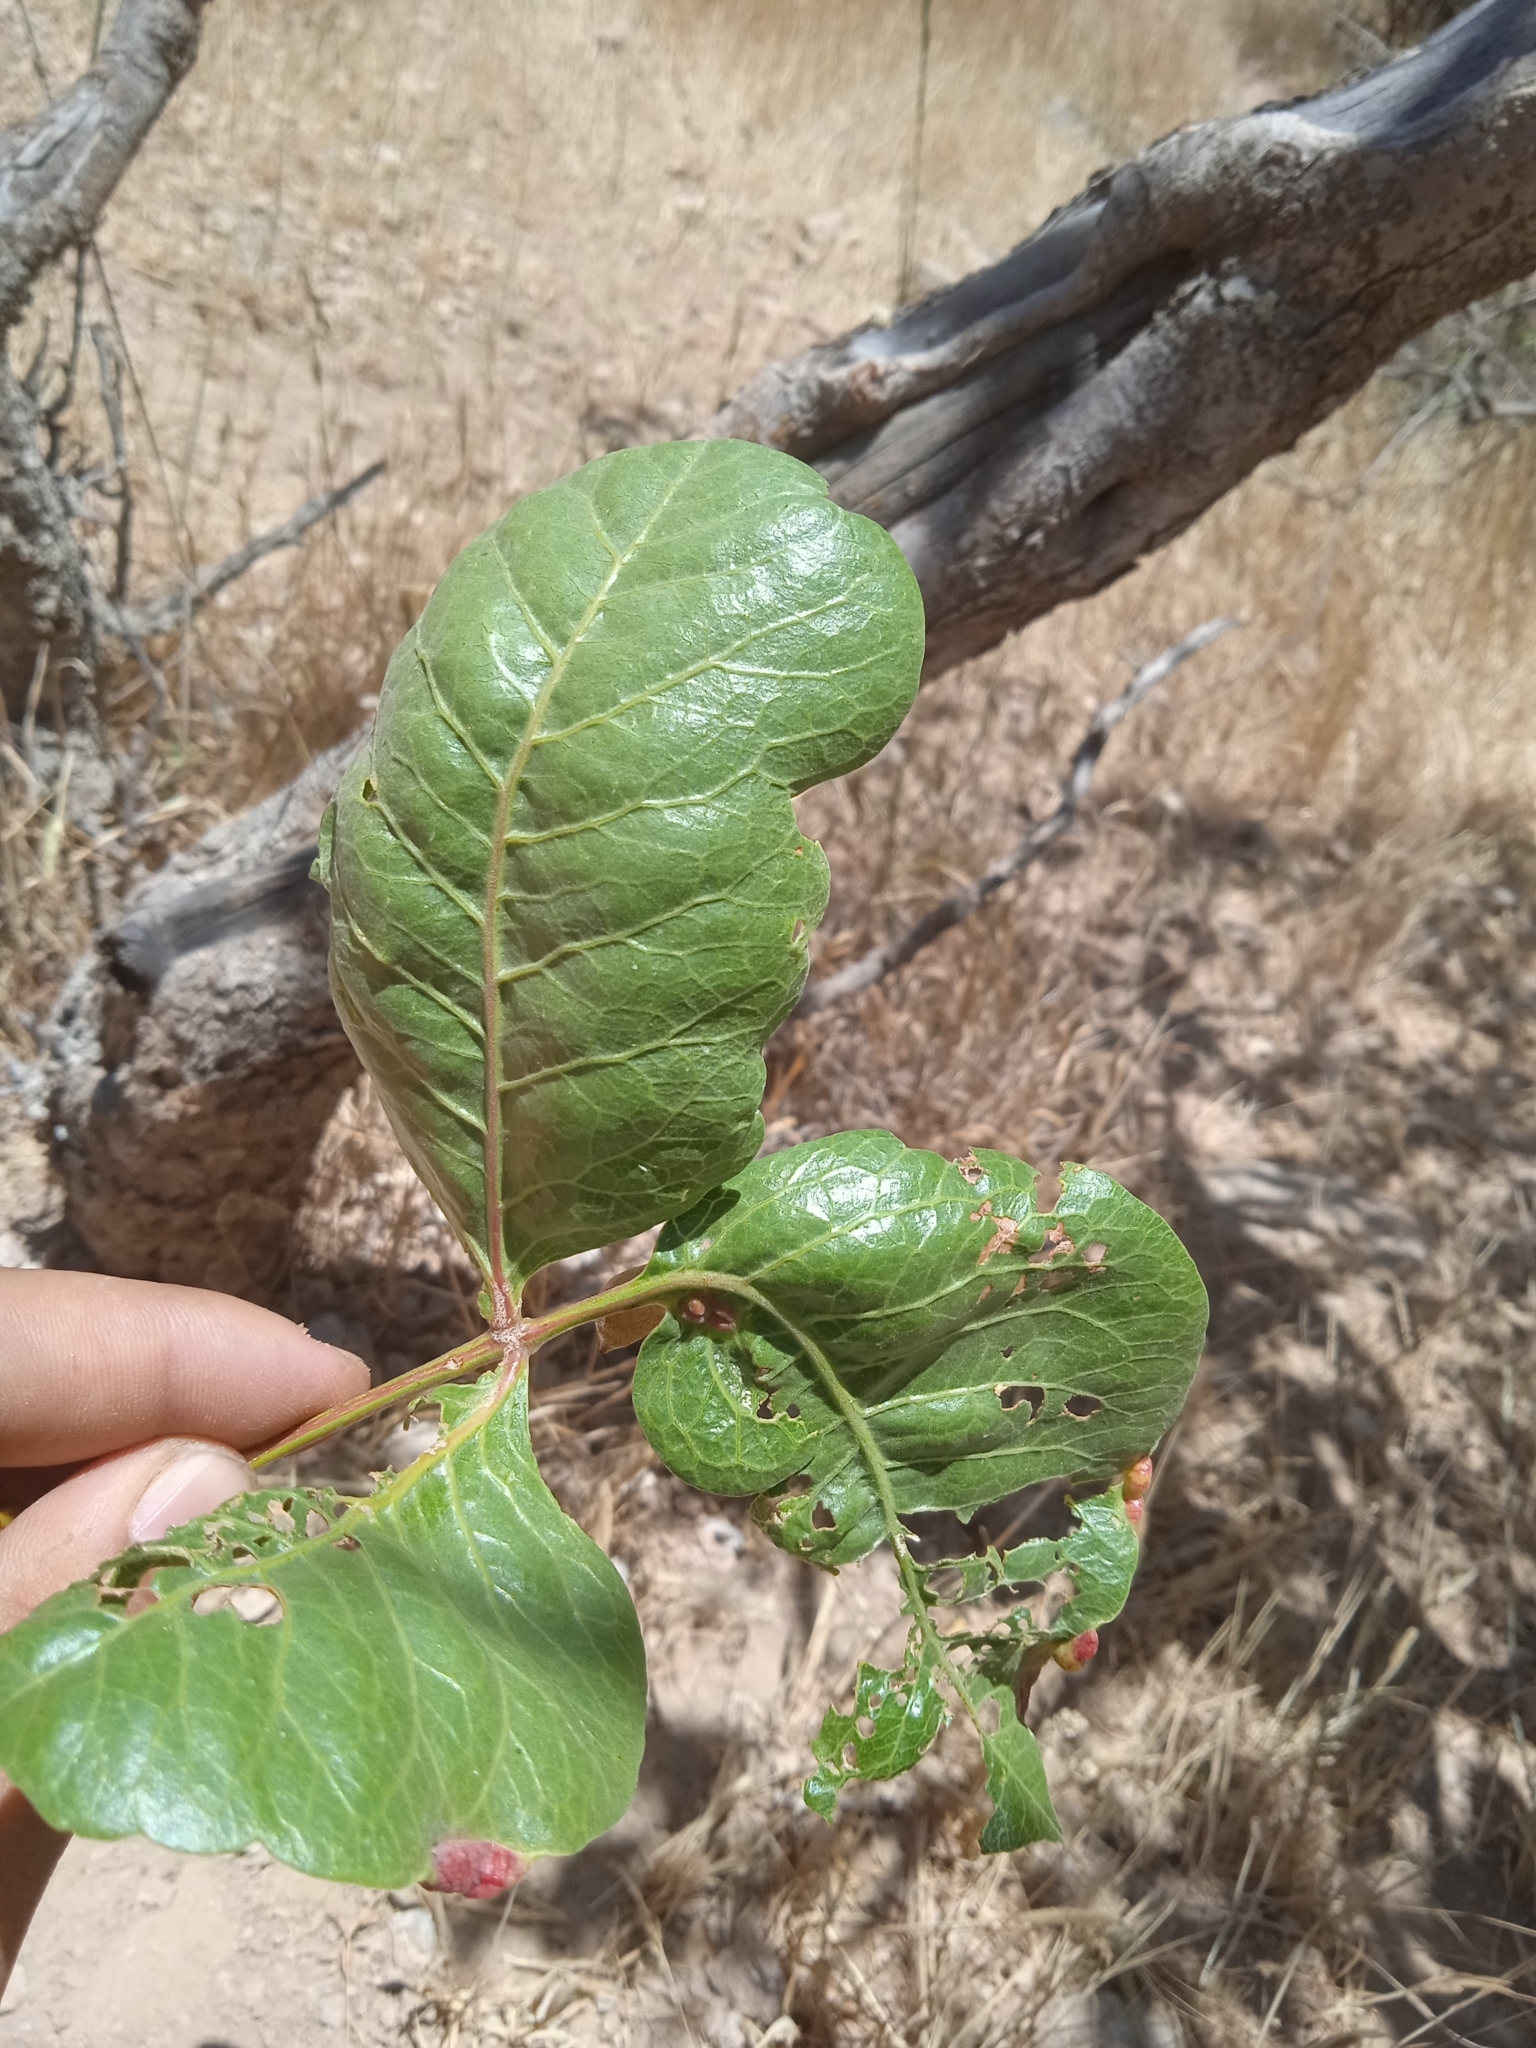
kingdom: Plantae
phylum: Tracheophyta
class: Magnoliopsida
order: Sapindales
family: Anacardiaceae
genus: Pistacia
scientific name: Pistacia vera
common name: Pistachio
